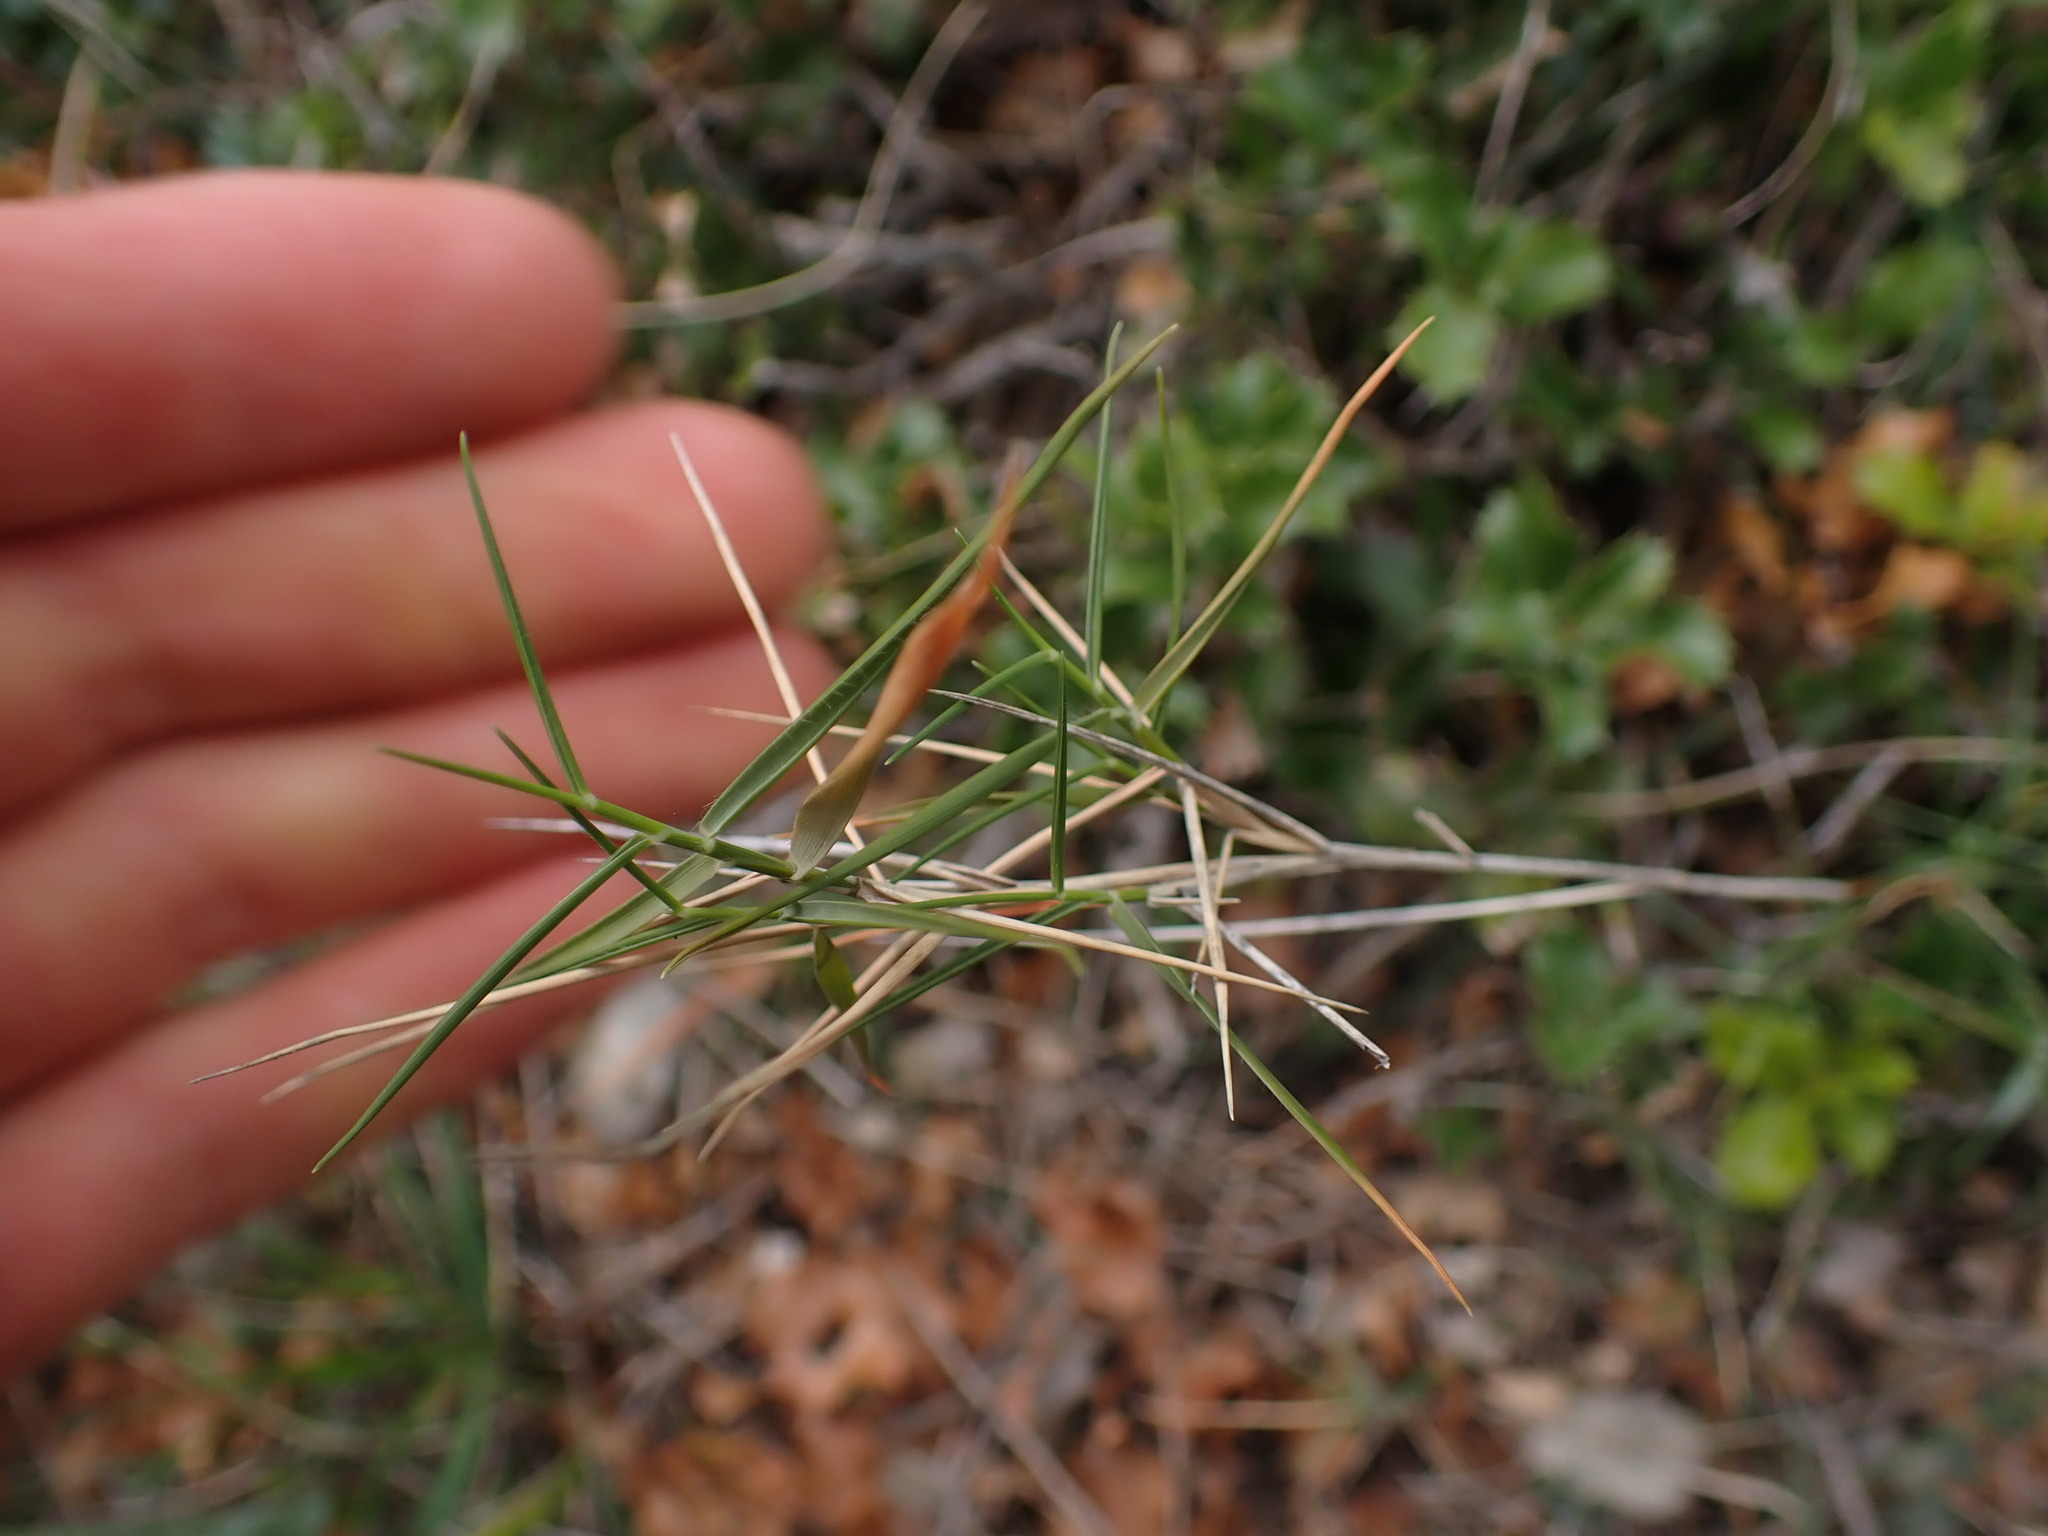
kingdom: Plantae
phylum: Tracheophyta
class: Liliopsida
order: Poales
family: Poaceae
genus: Brachypodium
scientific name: Brachypodium retusum
